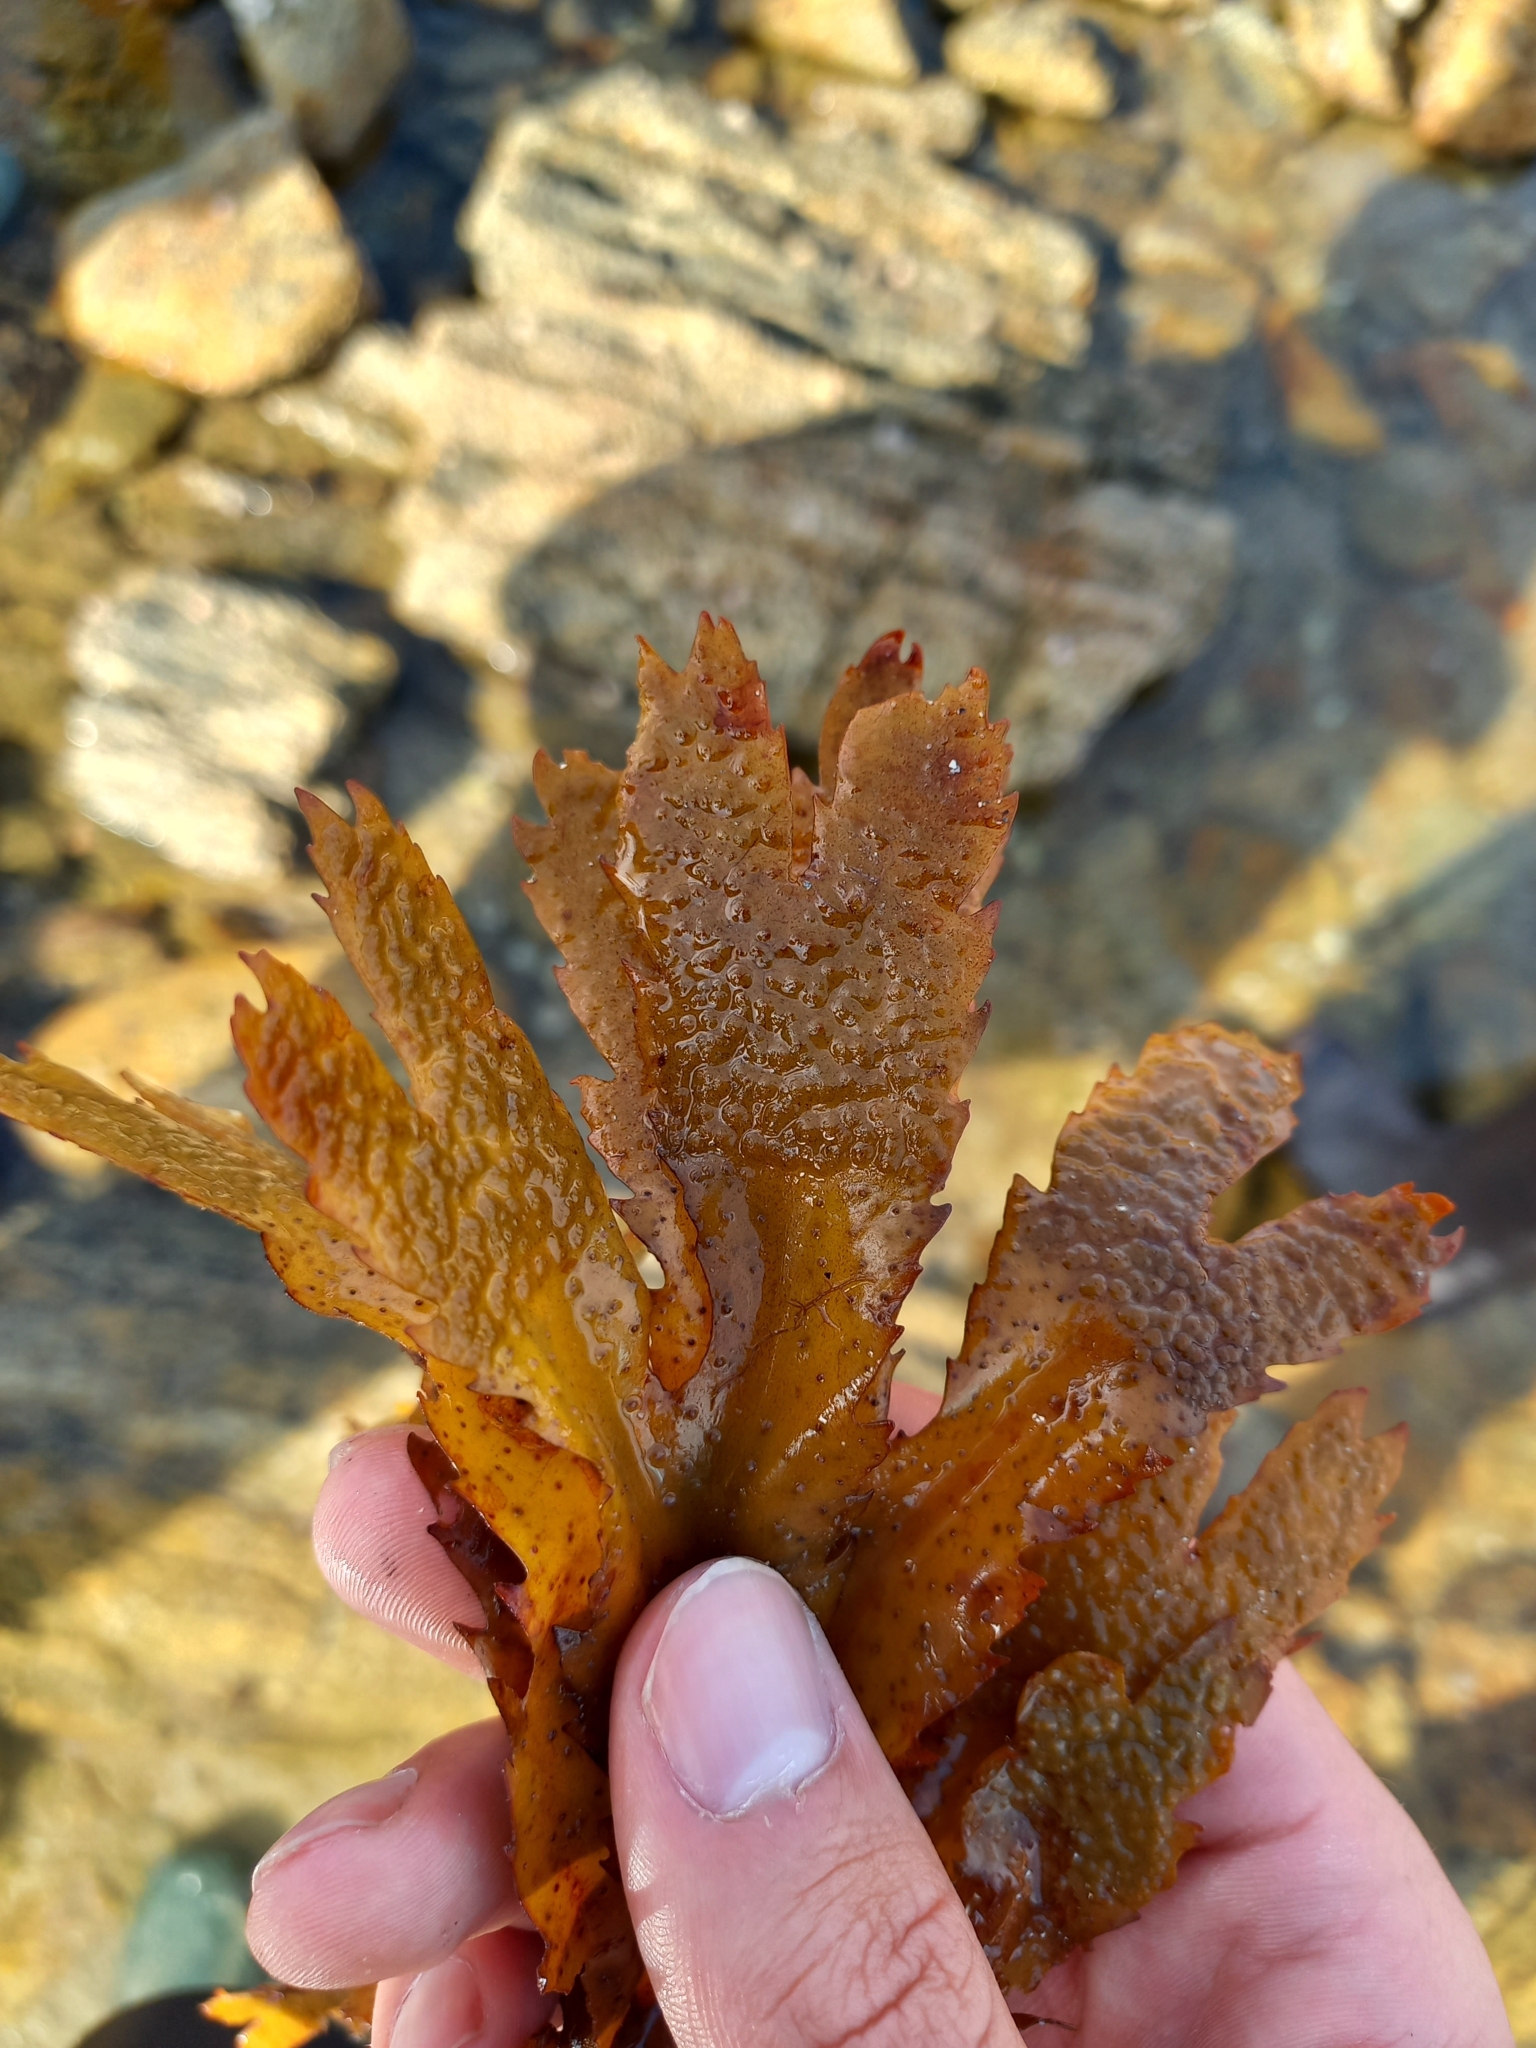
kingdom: Chromista
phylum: Ochrophyta
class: Phaeophyceae
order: Fucales
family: Fucaceae
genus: Fucus
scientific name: Fucus serratus
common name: Toothed wrack
